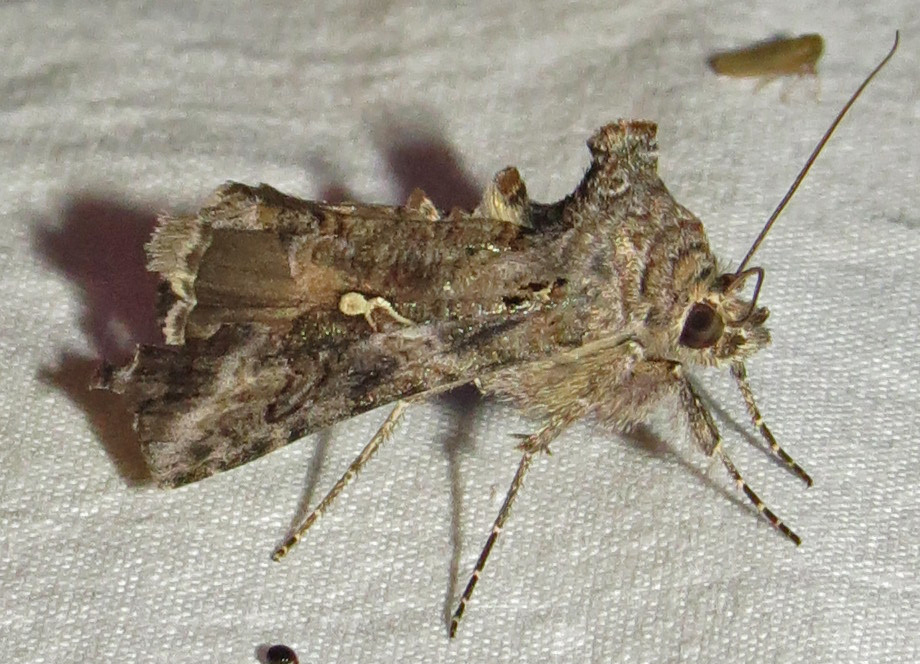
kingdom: Animalia
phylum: Arthropoda
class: Insecta
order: Lepidoptera
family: Noctuidae
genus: Rachiplusia
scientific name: Rachiplusia ou
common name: Gray looper moth
